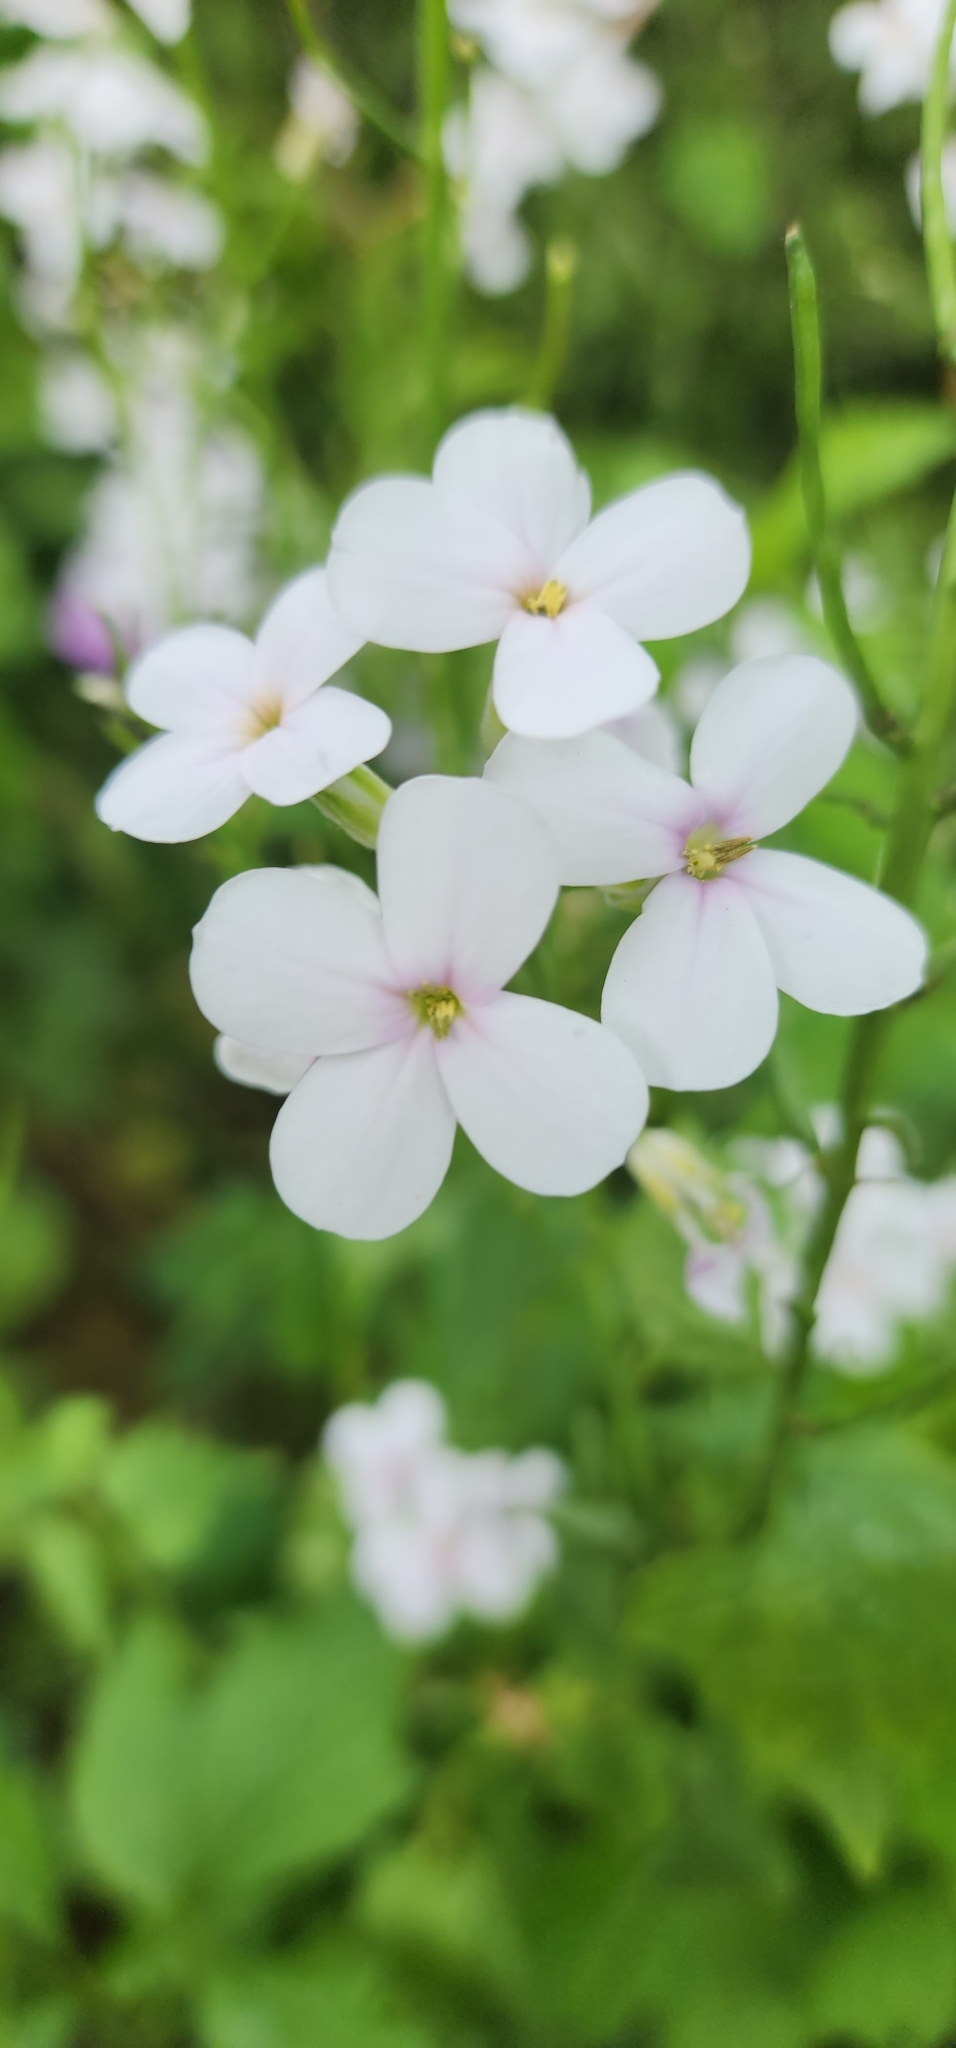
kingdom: Plantae
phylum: Tracheophyta
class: Magnoliopsida
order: Brassicales
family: Brassicaceae
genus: Hesperis
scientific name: Hesperis matronalis
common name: Dame's-violet
